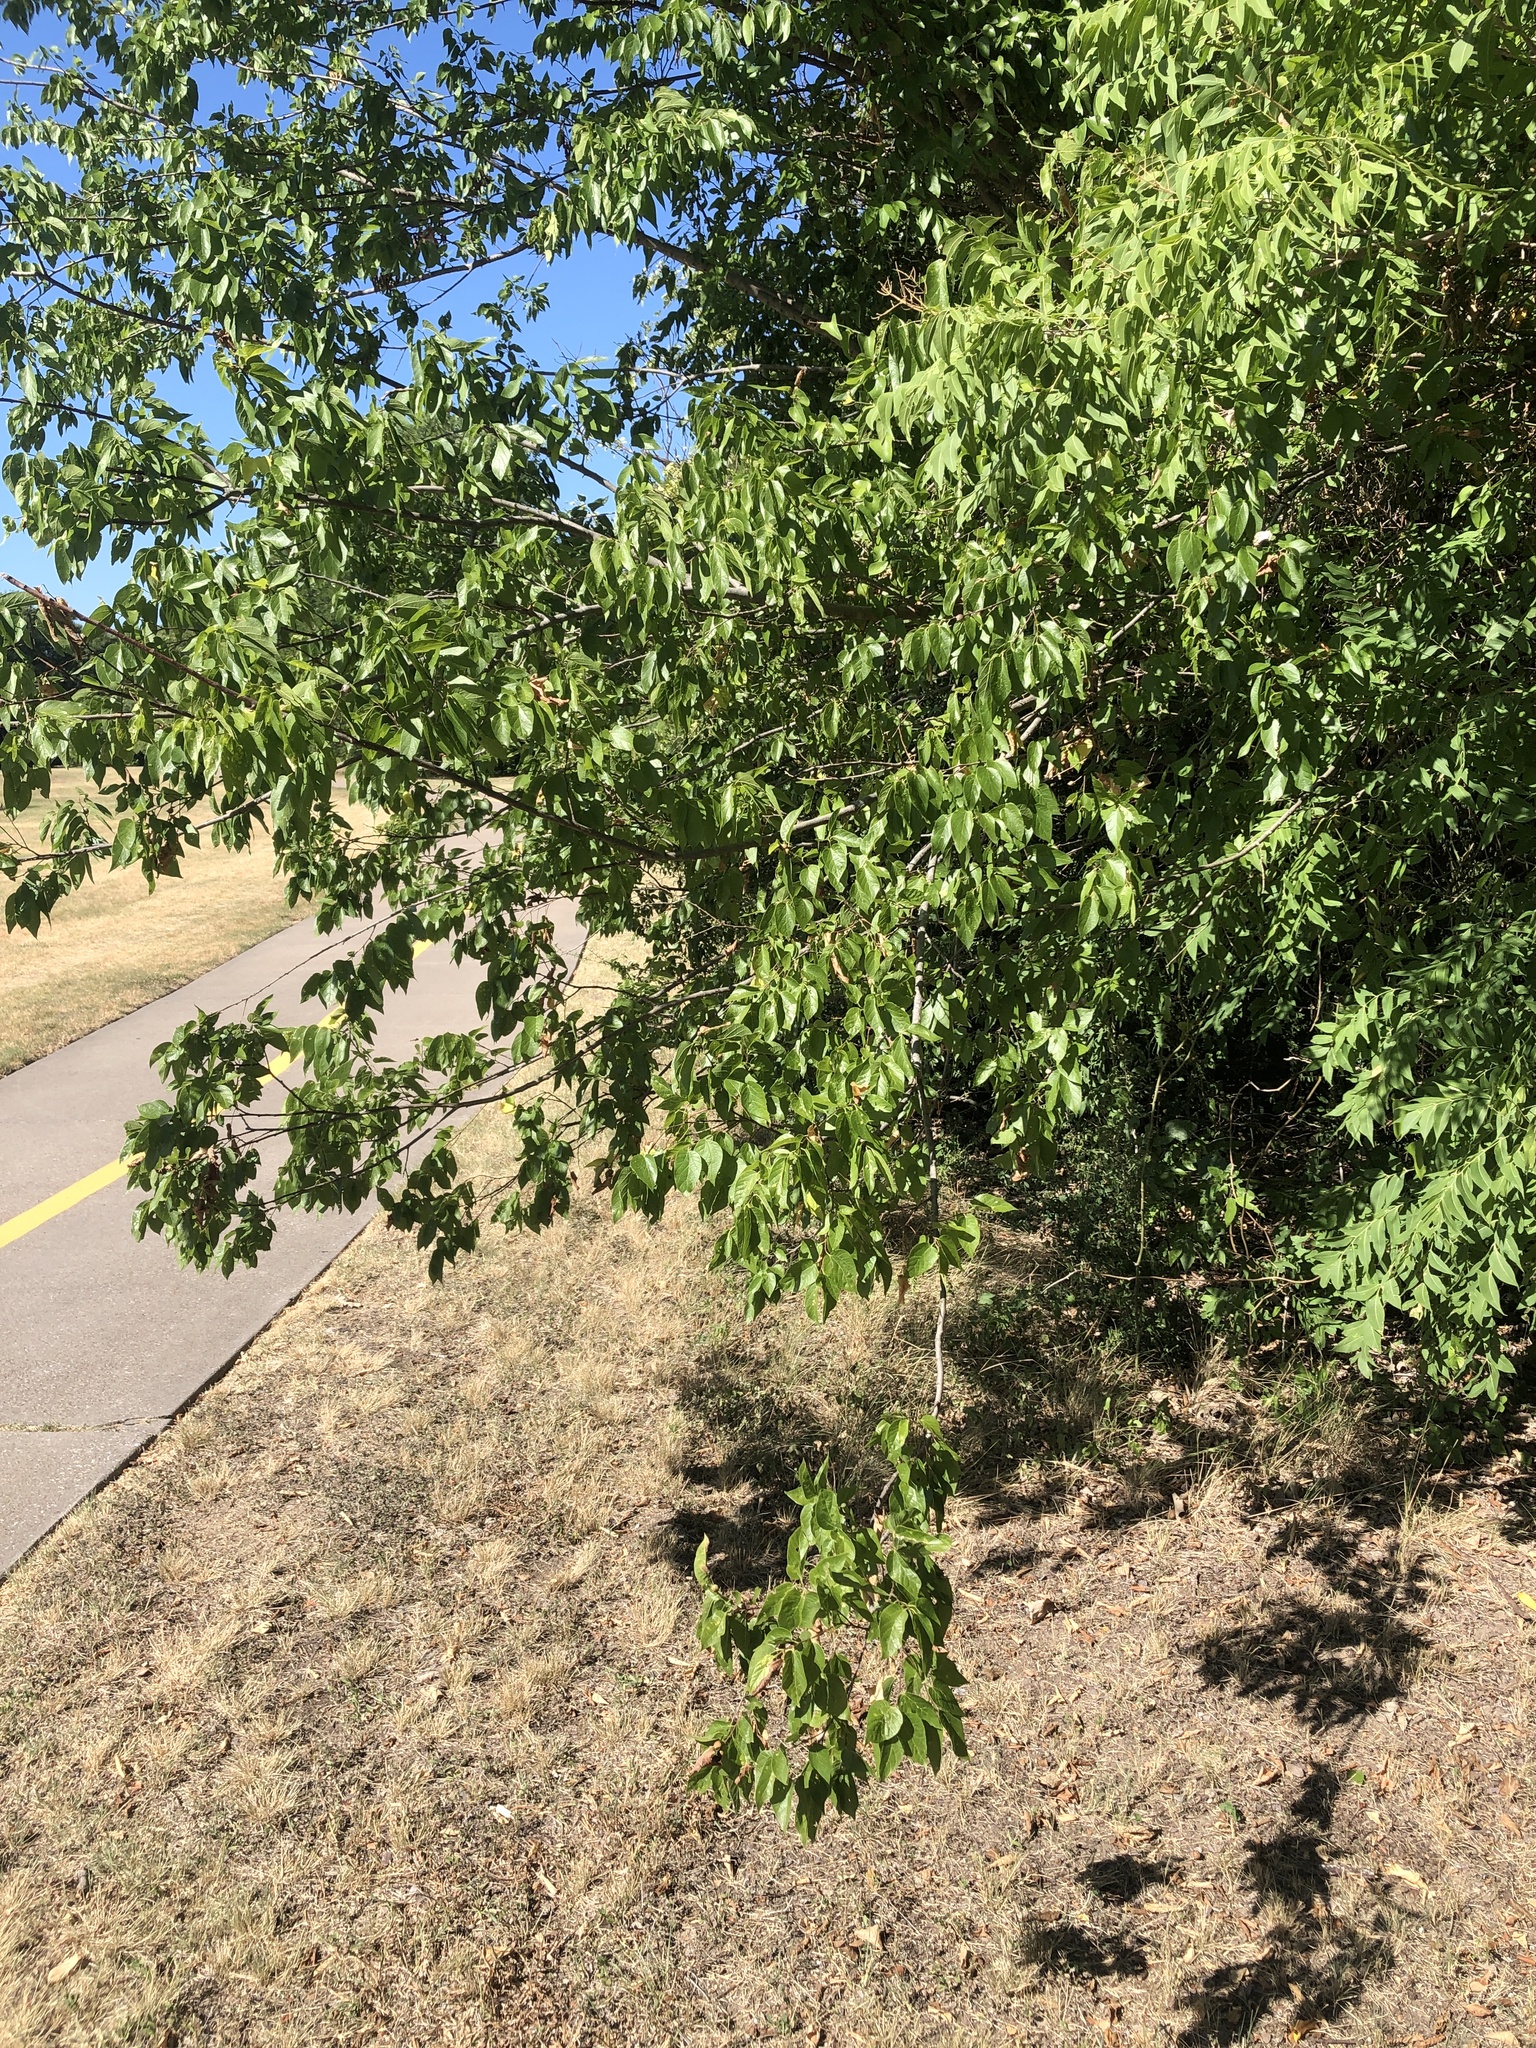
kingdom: Plantae
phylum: Tracheophyta
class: Magnoliopsida
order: Rosales
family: Cannabaceae
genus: Celtis
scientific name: Celtis laevigata
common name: Sugarberry
